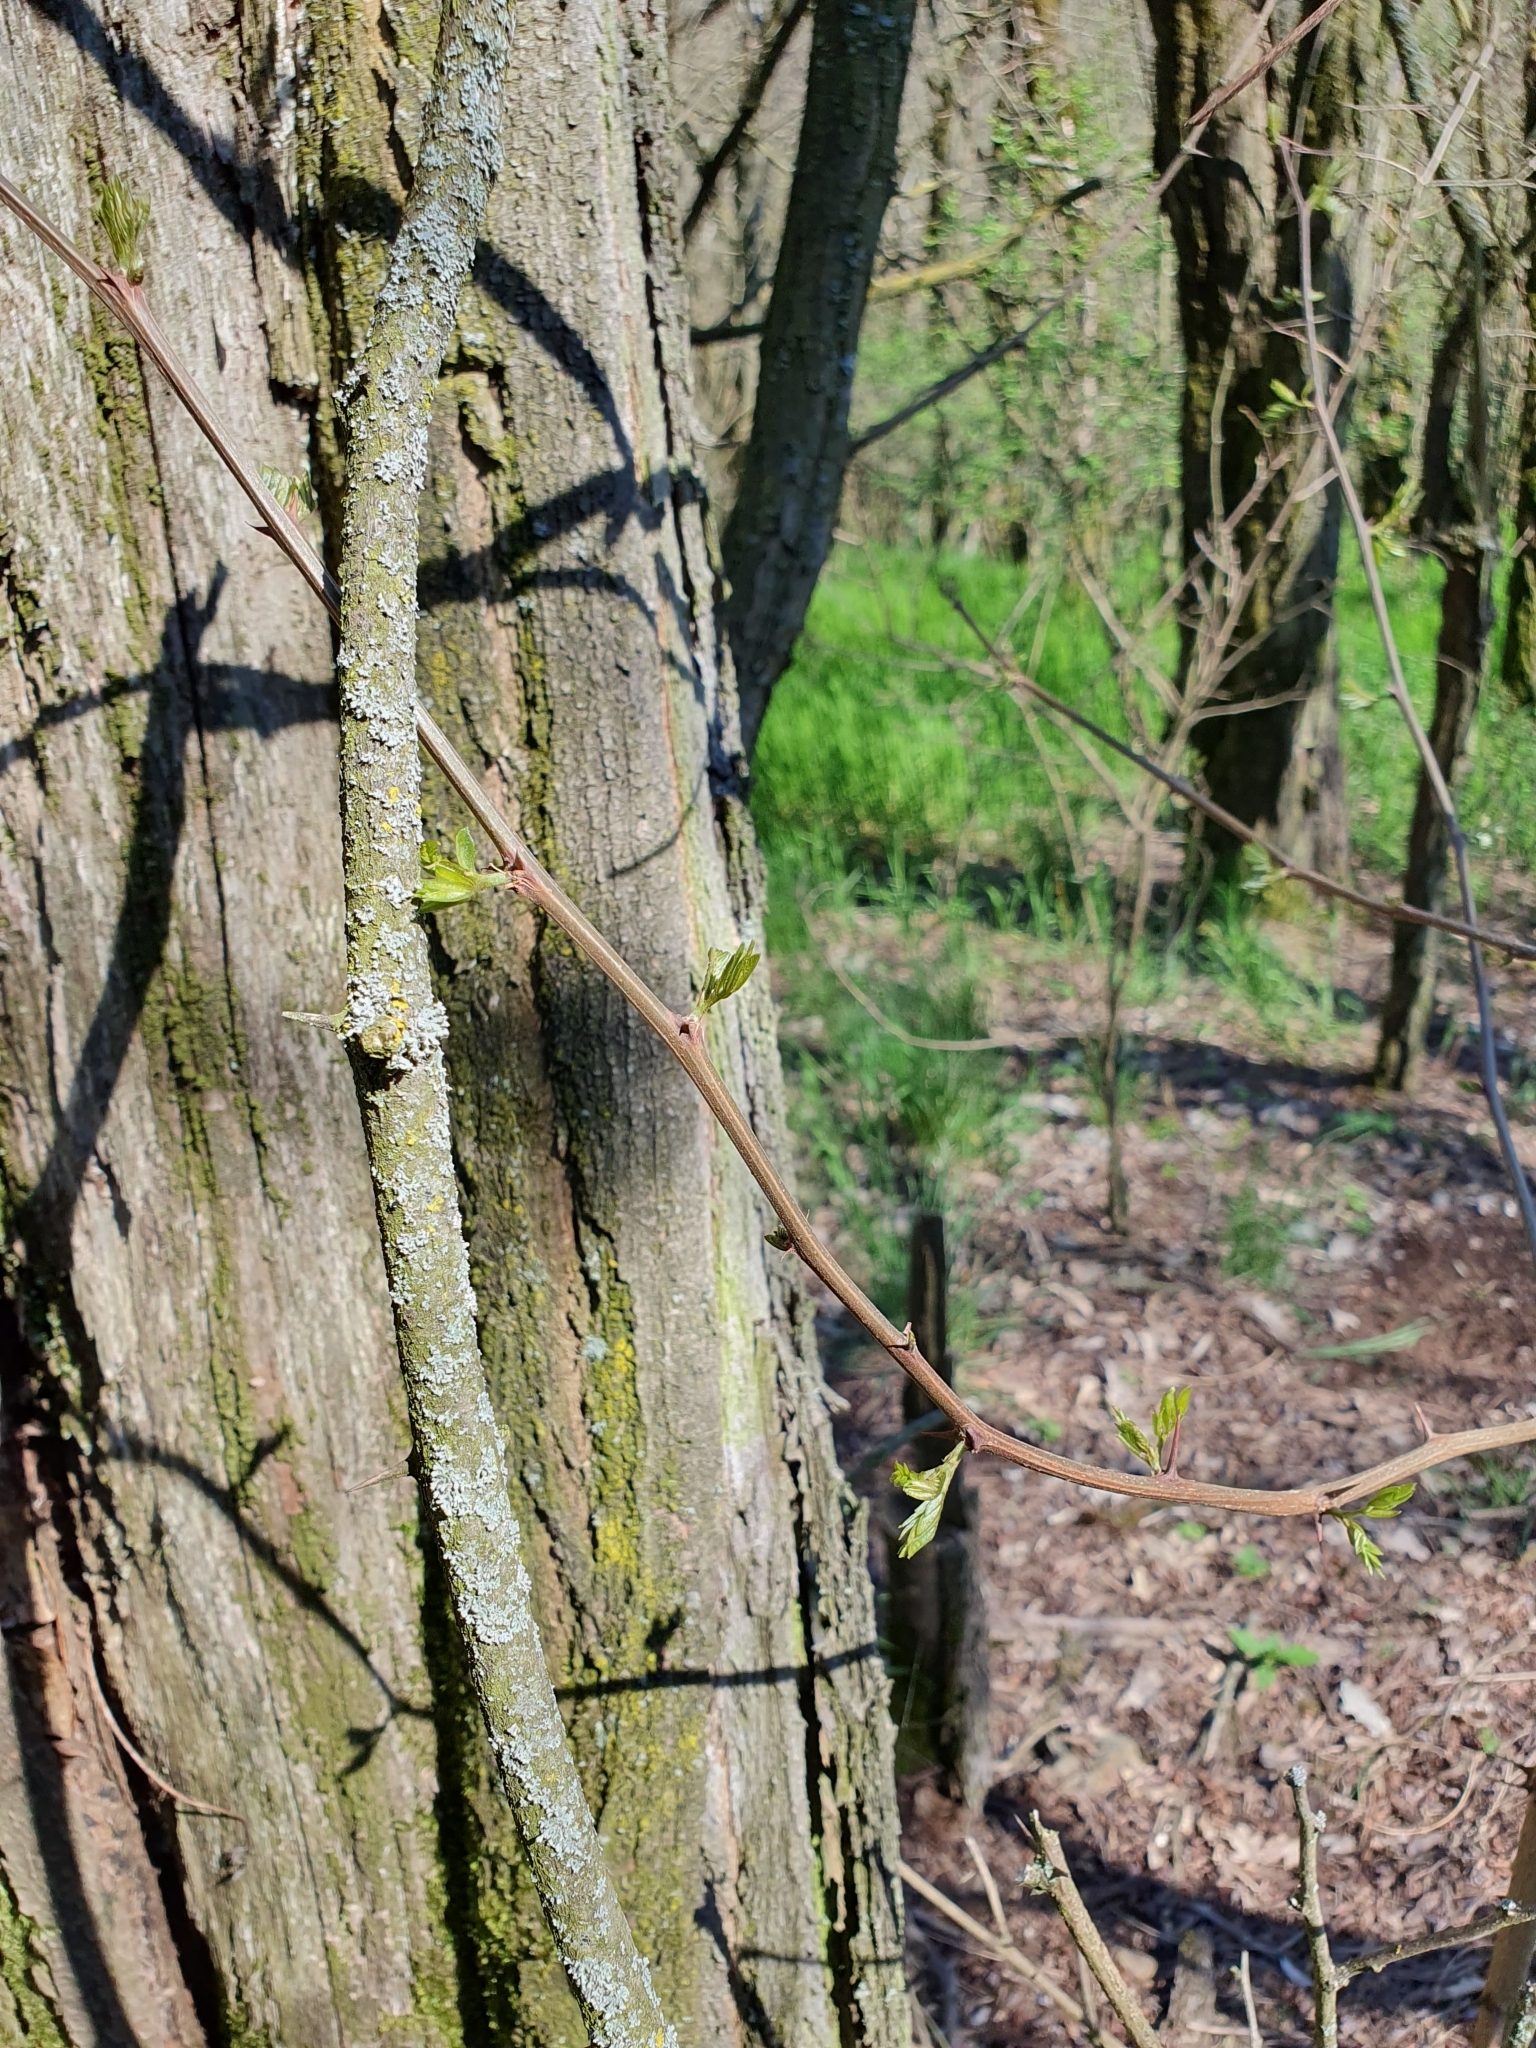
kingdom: Plantae
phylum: Tracheophyta
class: Magnoliopsida
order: Fabales
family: Fabaceae
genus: Robinia
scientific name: Robinia pseudoacacia
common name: Black locust
